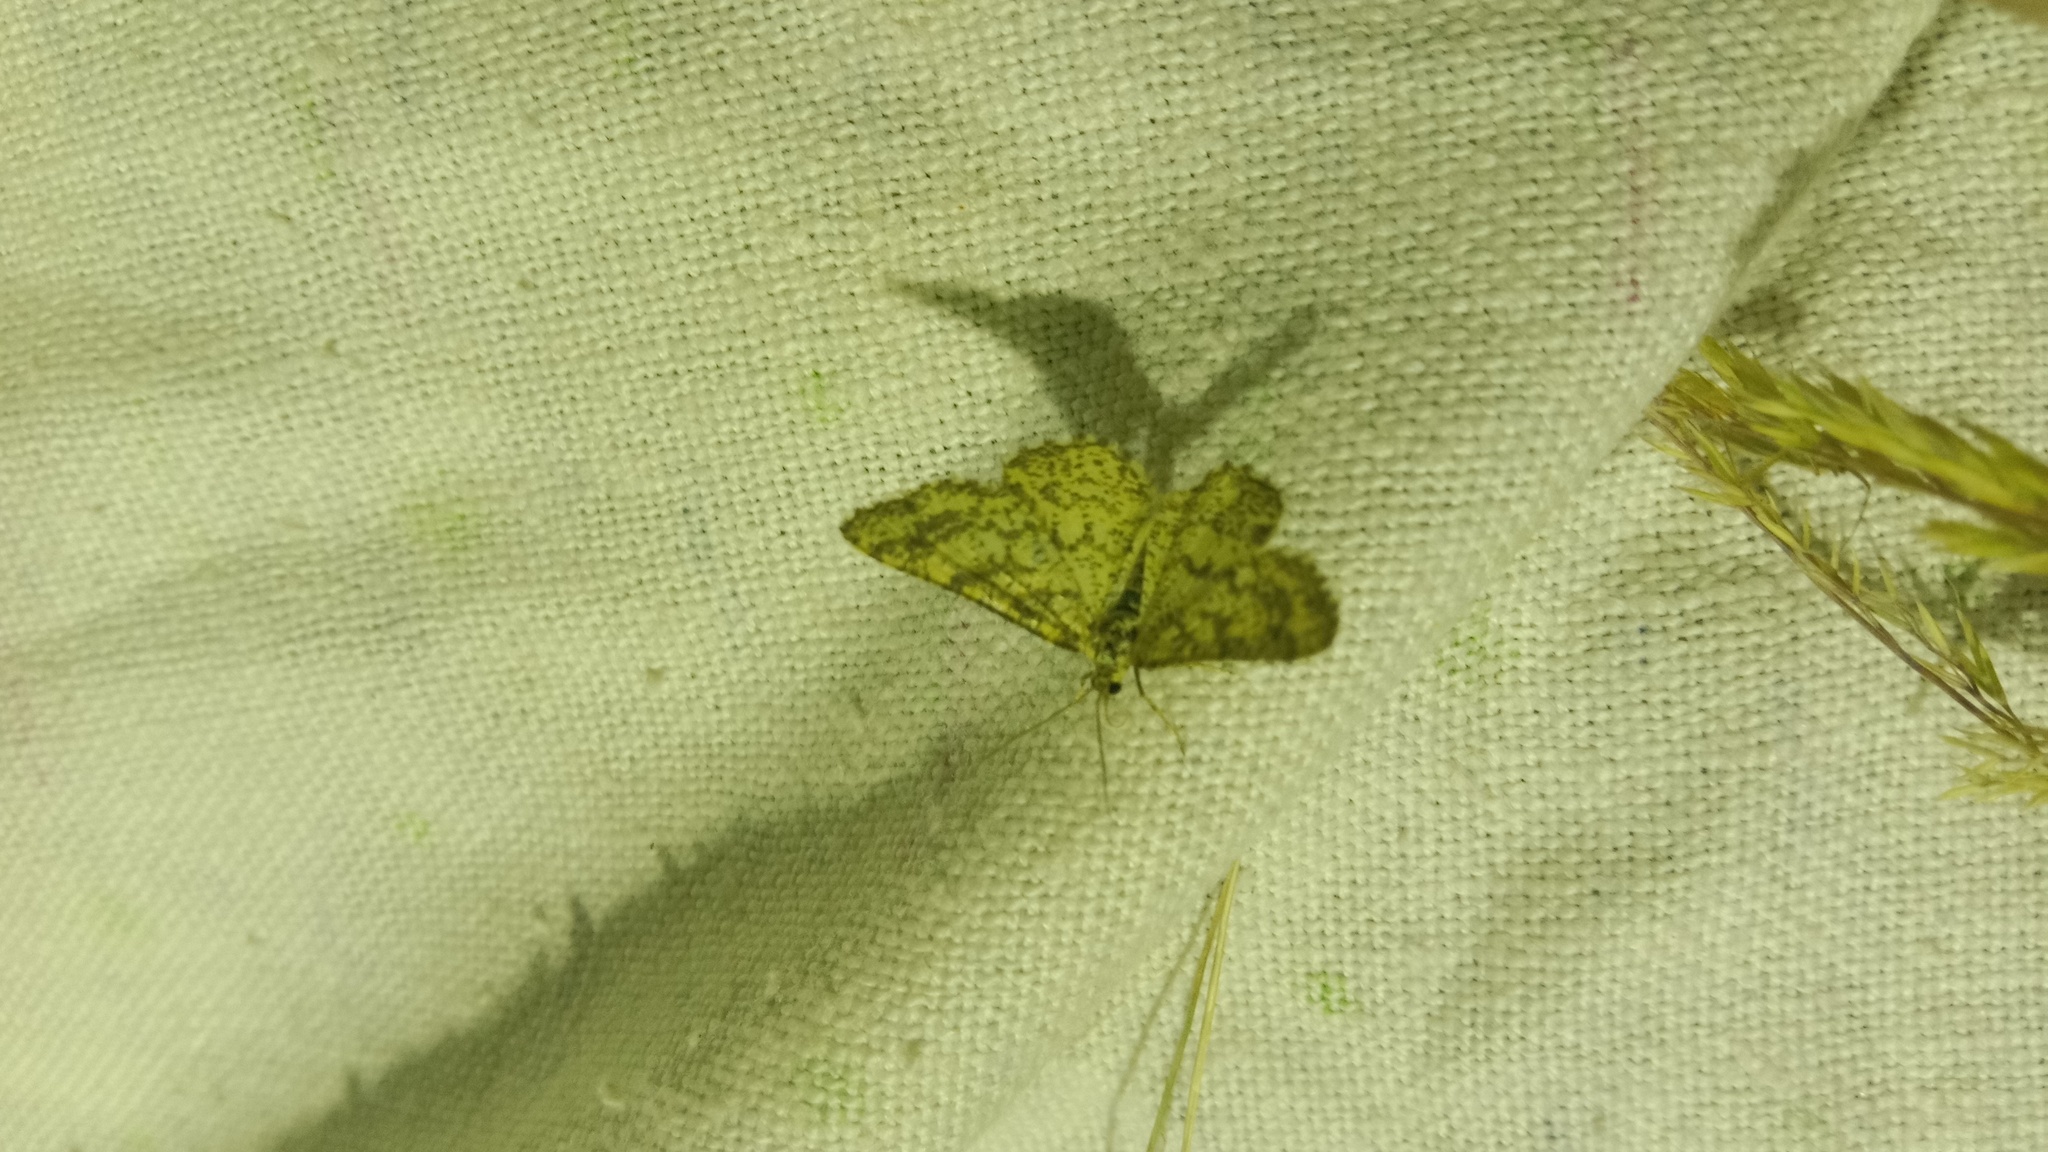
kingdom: Animalia
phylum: Arthropoda
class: Insecta
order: Lepidoptera
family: Geometridae
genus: Heliomata
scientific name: Heliomata glarearia
